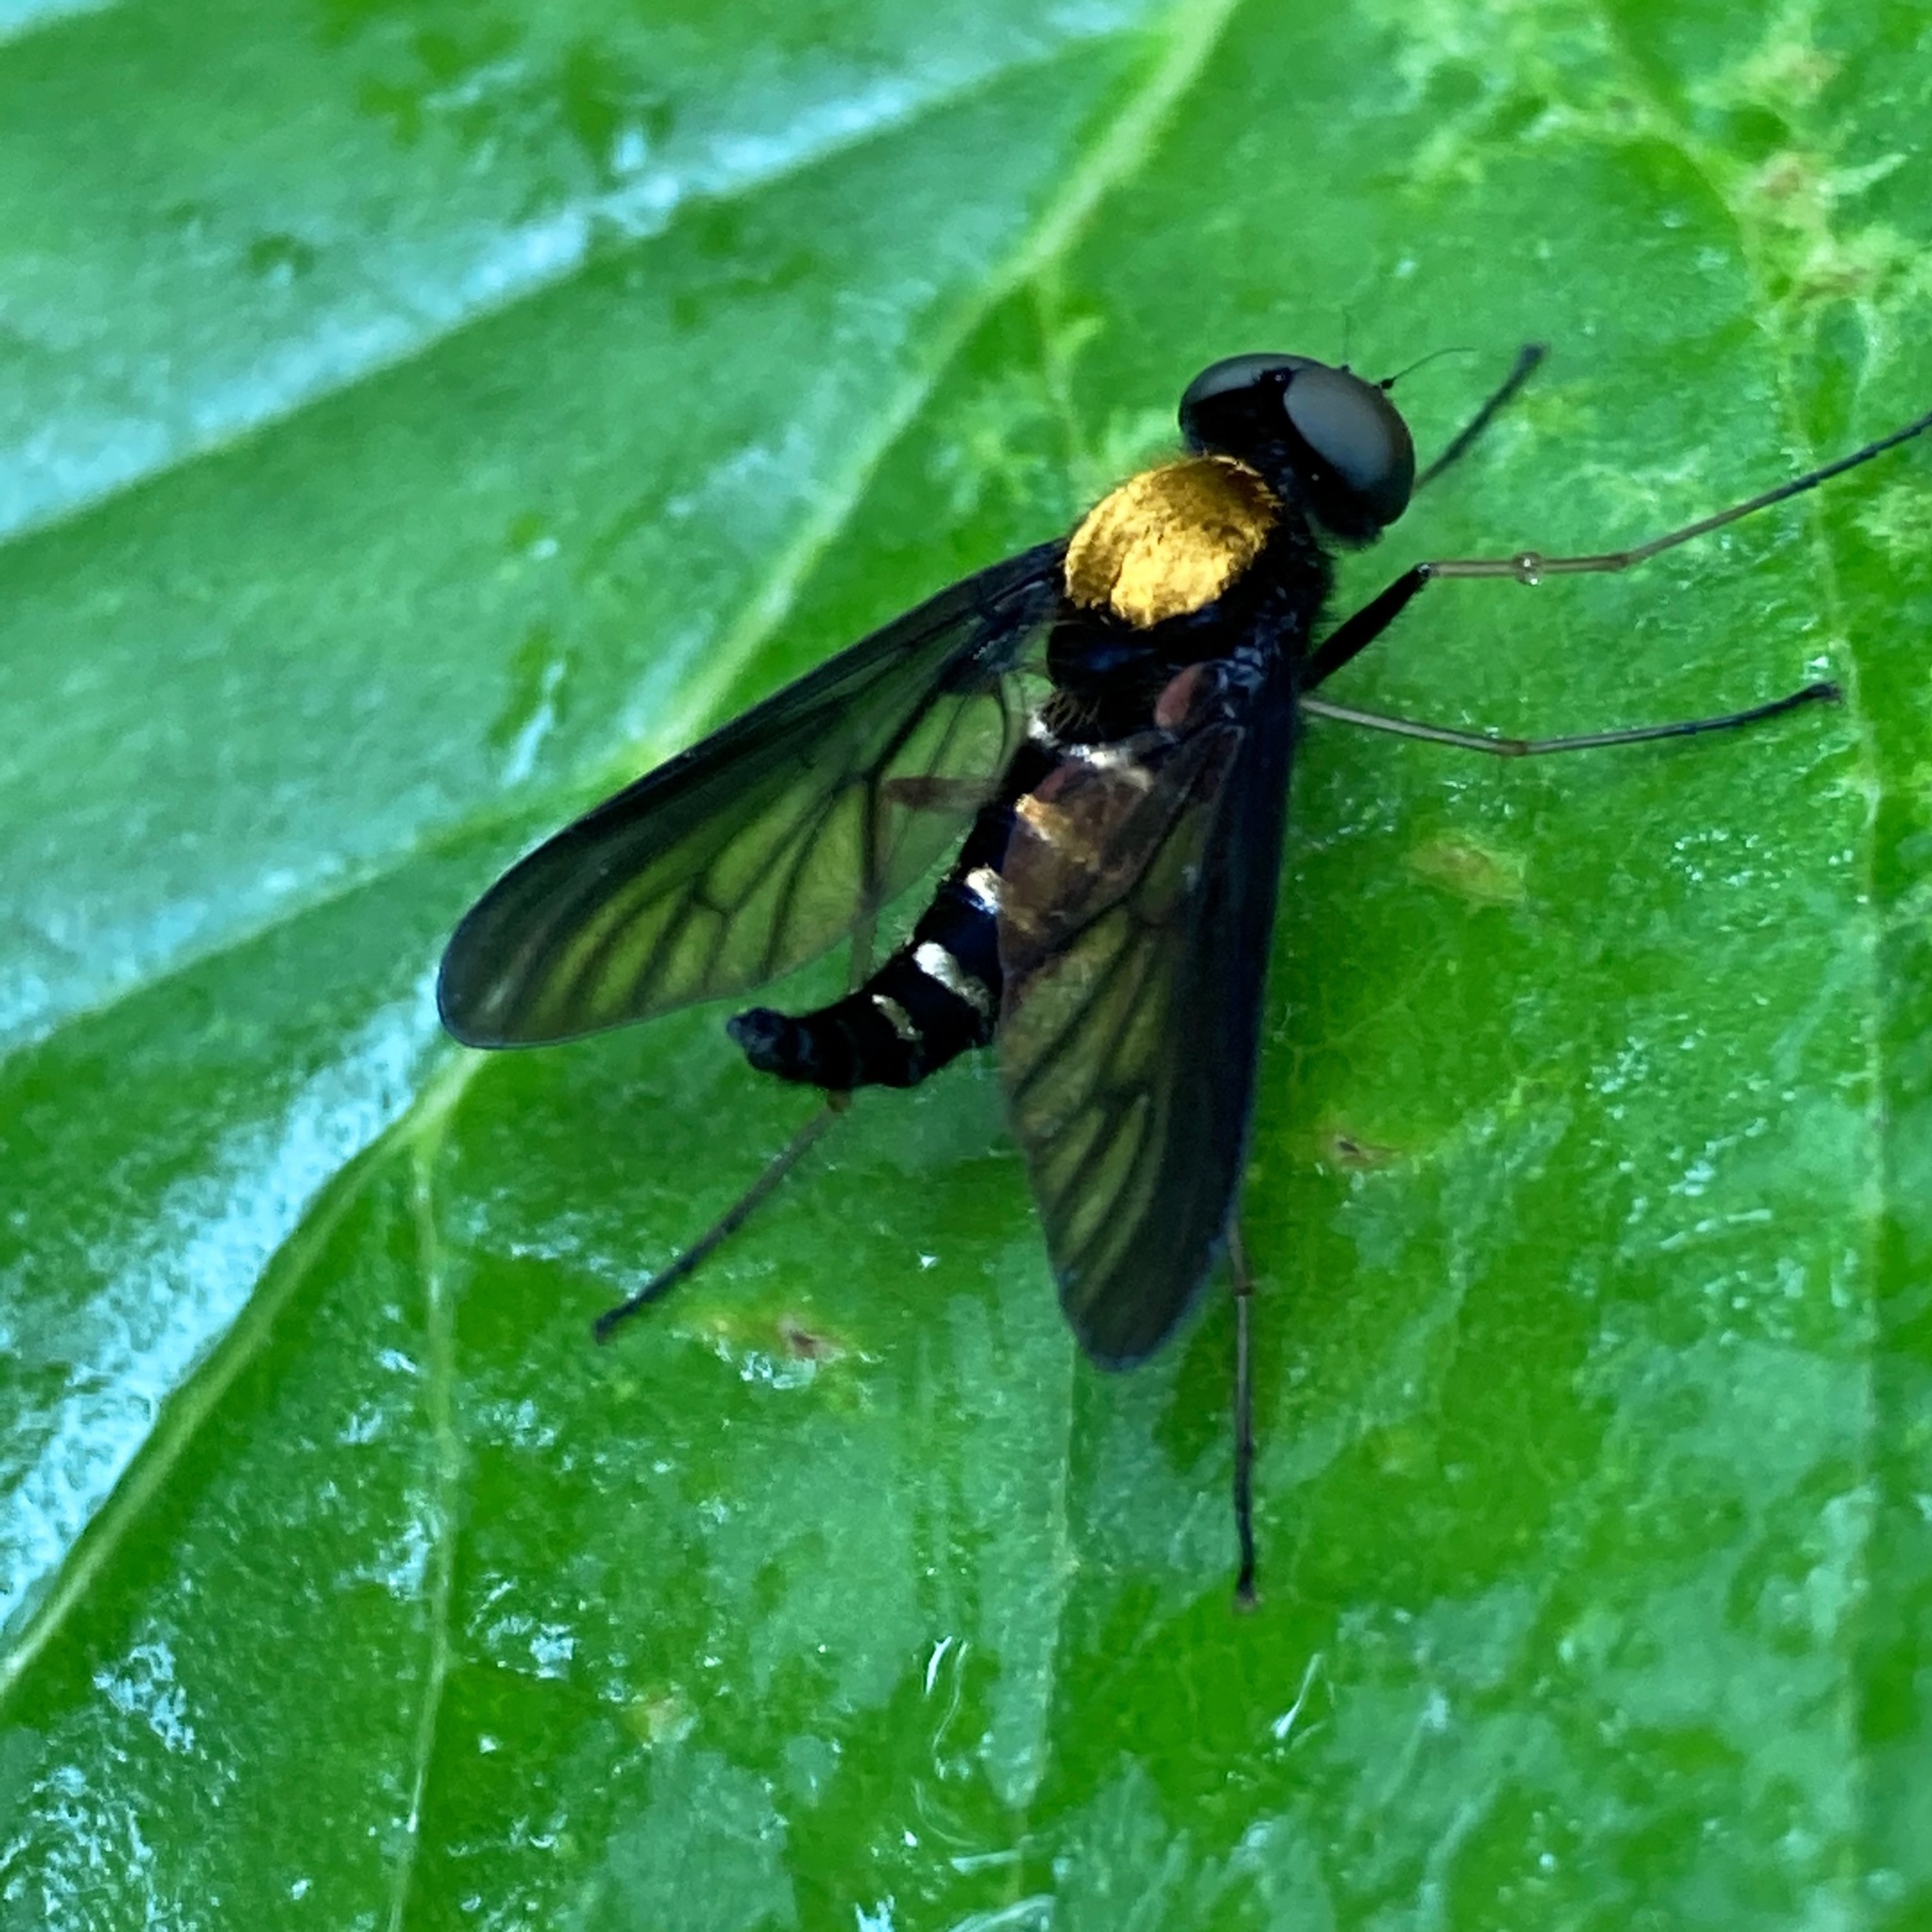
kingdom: Animalia
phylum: Arthropoda
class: Insecta
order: Diptera
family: Rhagionidae
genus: Chrysopilus
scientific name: Chrysopilus thoracicus
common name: Golden-backed snipe fly
